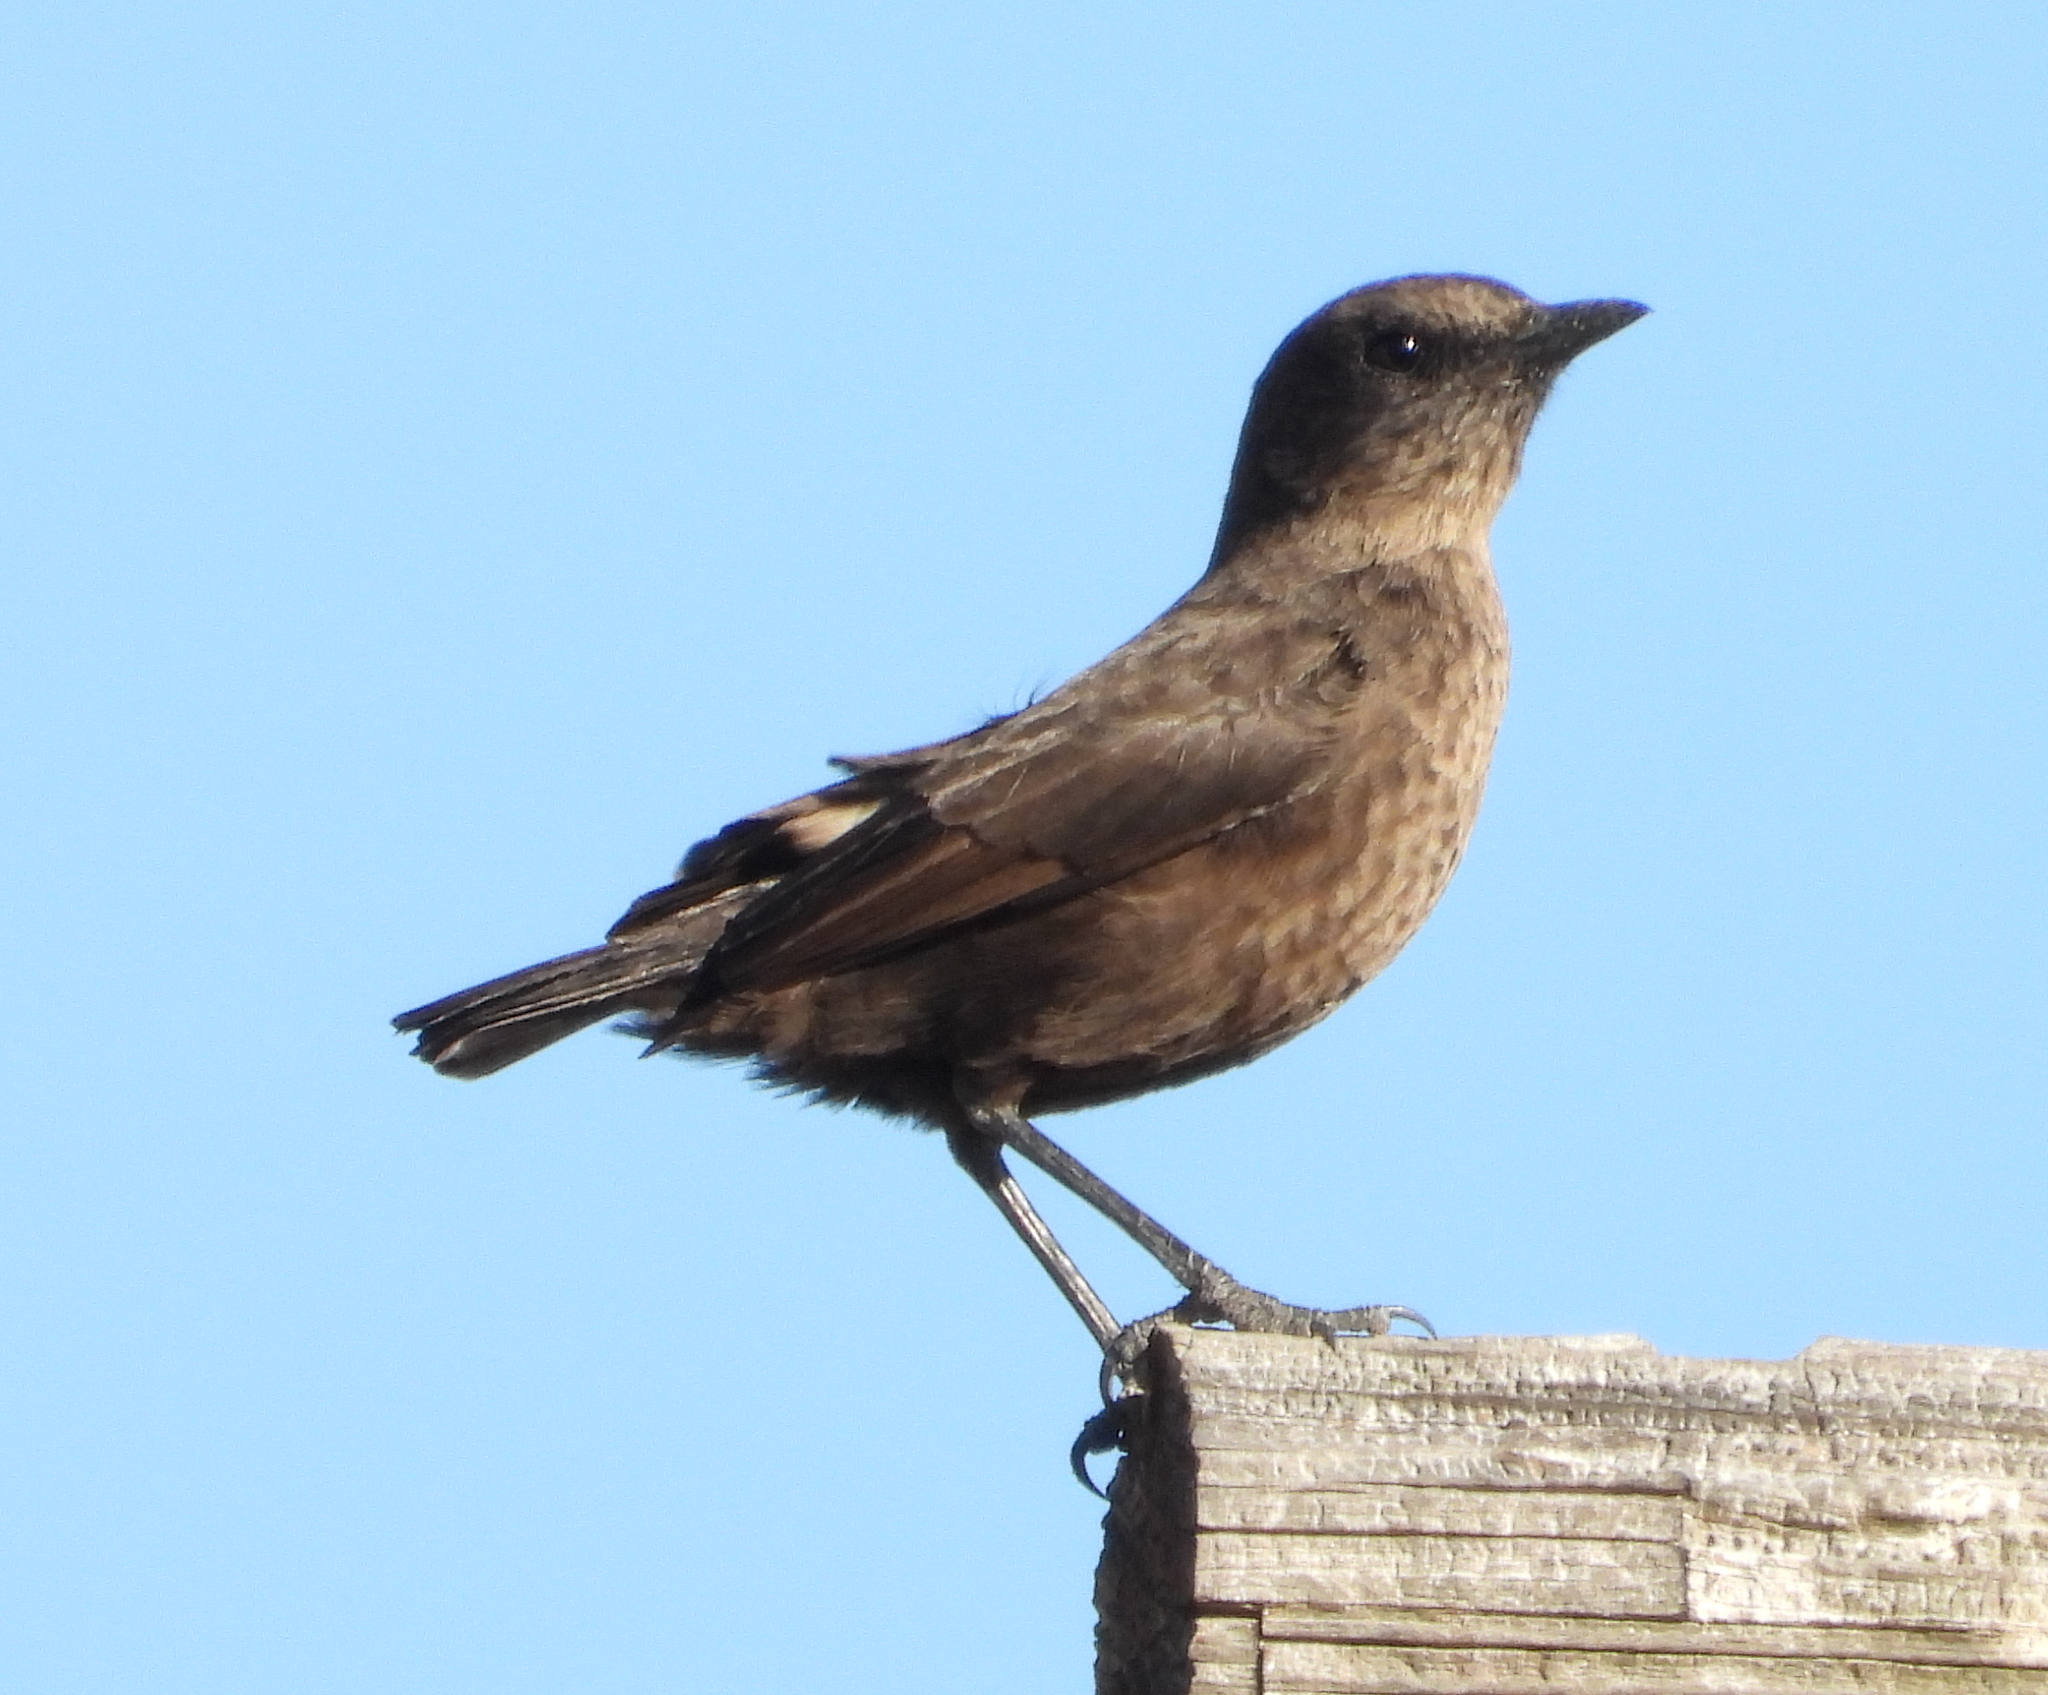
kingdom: Animalia
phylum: Chordata
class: Aves
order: Passeriformes
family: Muscicapidae
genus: Myrmecocichla
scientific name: Myrmecocichla formicivora
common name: Ant-eating chat
